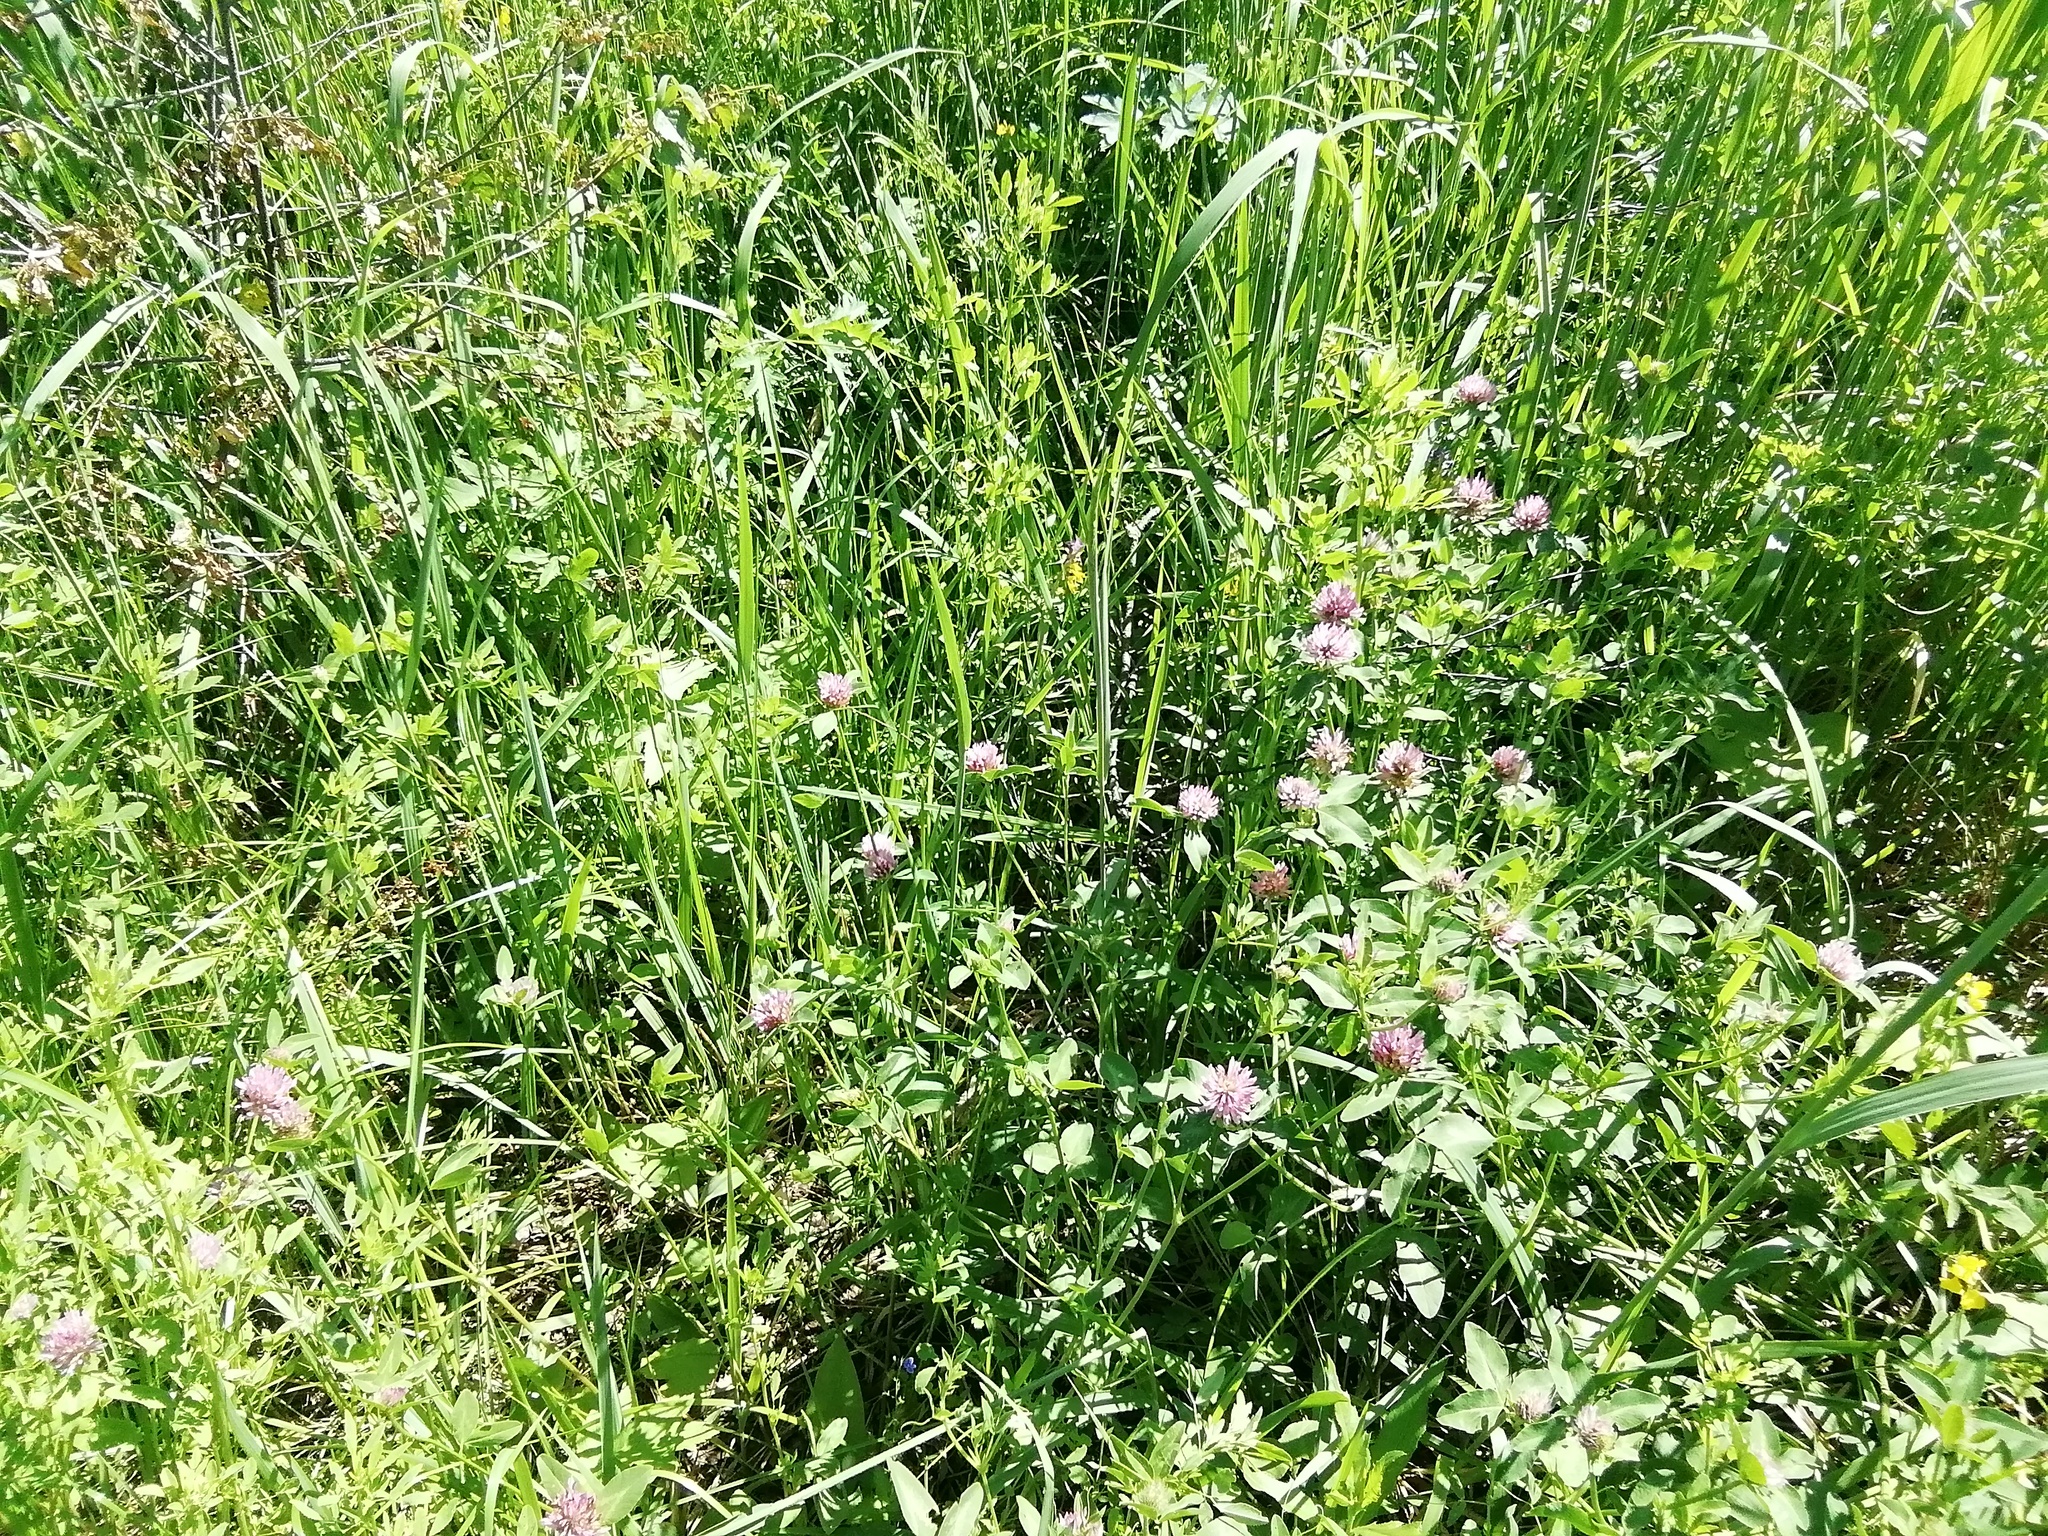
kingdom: Plantae
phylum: Tracheophyta
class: Magnoliopsida
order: Fabales
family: Fabaceae
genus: Trifolium
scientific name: Trifolium pratense
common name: Red clover
